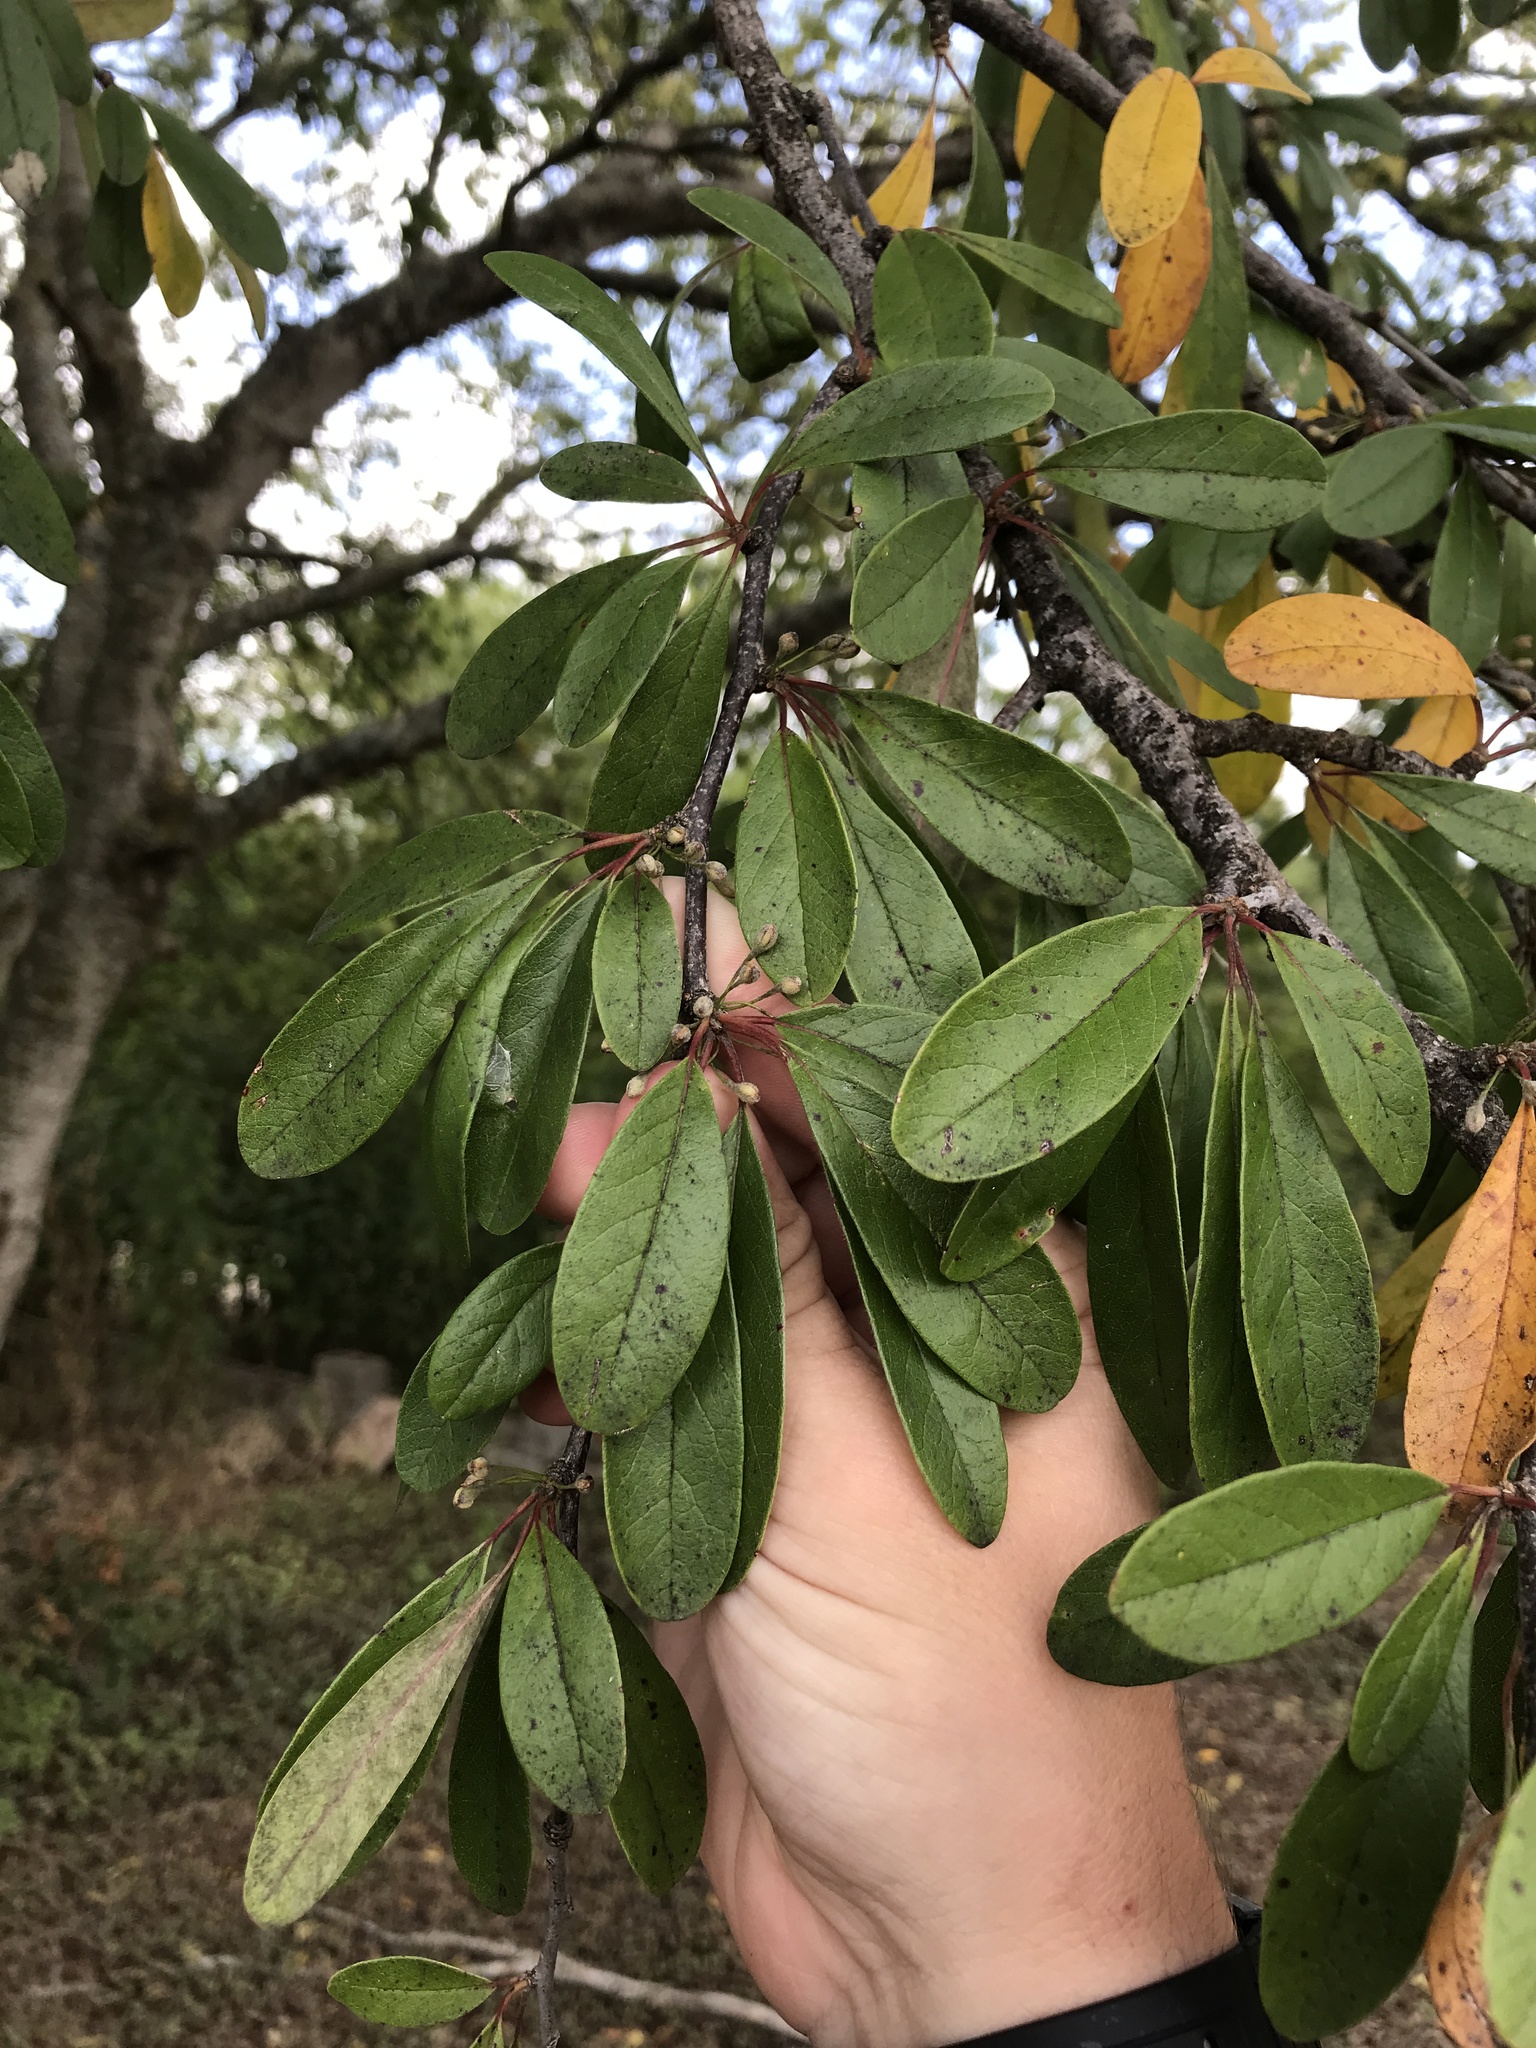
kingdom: Plantae
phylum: Tracheophyta
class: Magnoliopsida
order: Ericales
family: Sapotaceae
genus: Sideroxylon
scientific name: Sideroxylon lanuginosum
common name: Chittamwood
